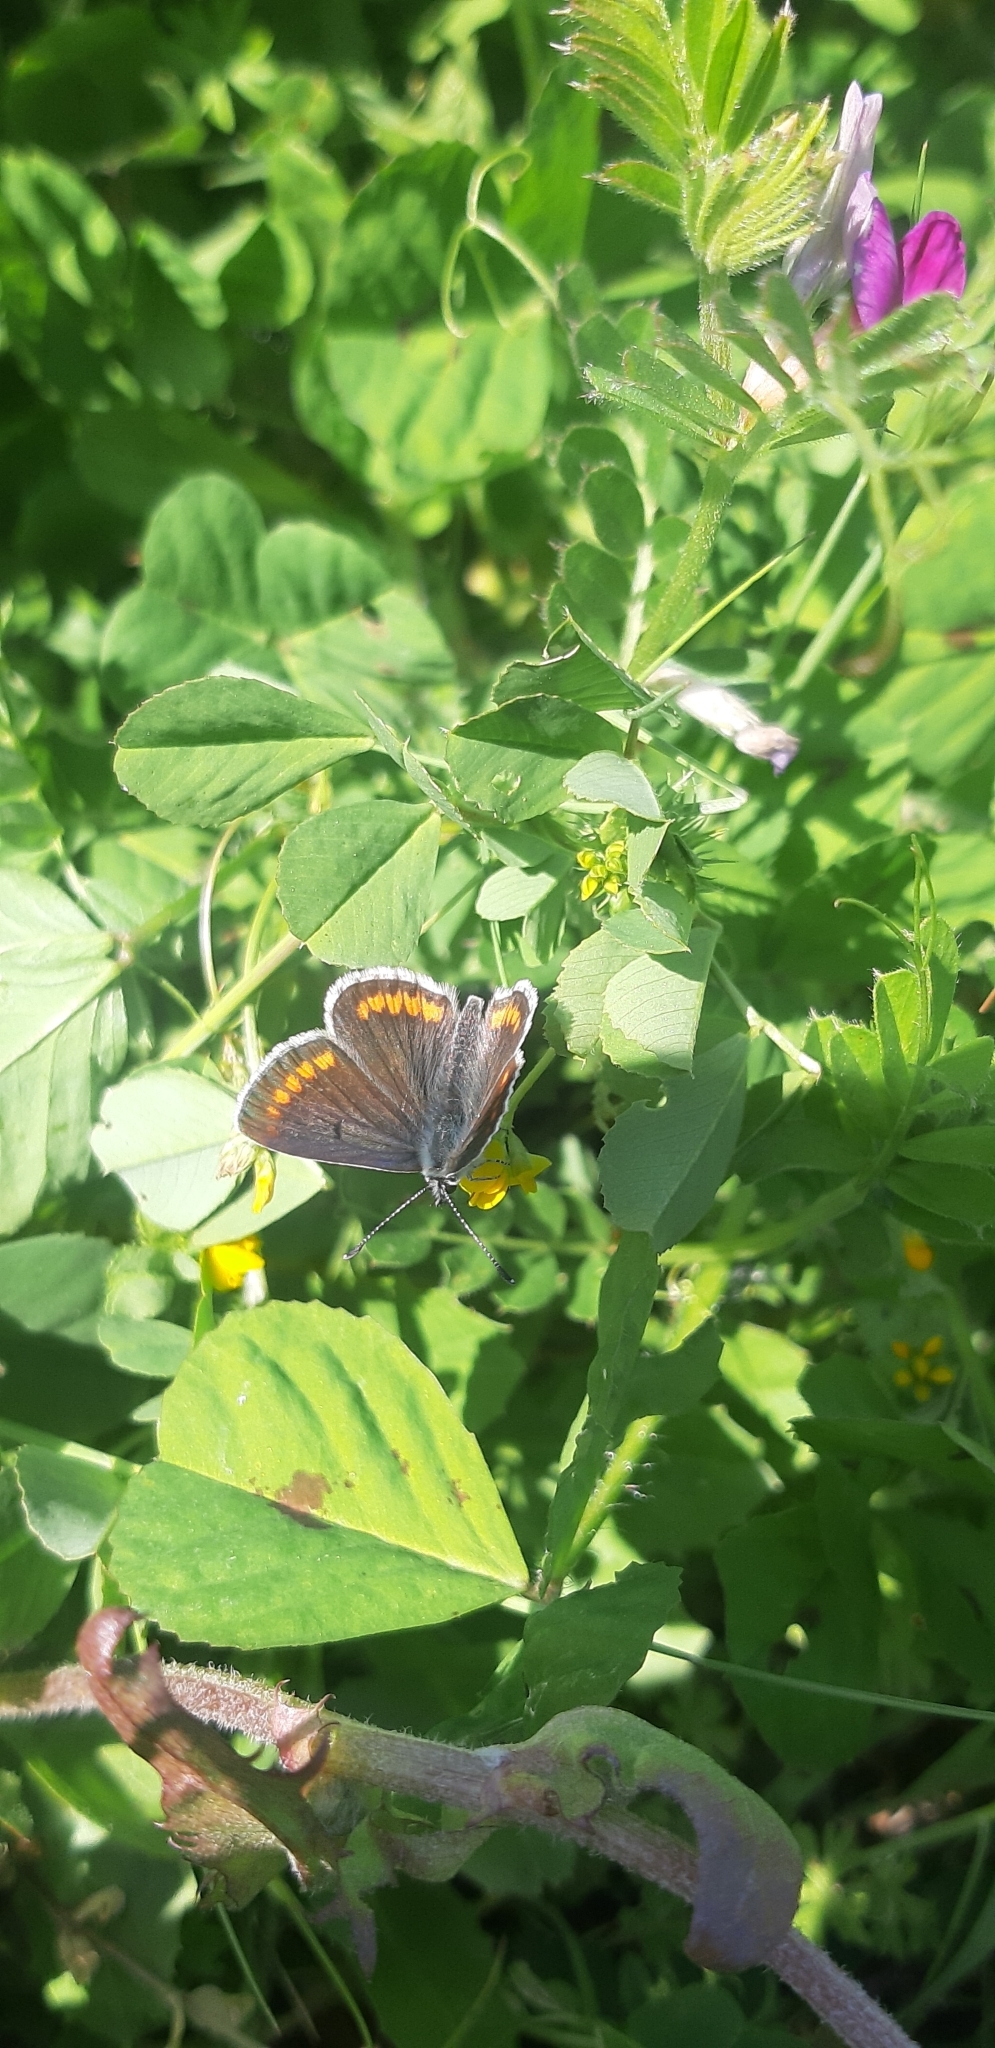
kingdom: Animalia
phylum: Arthropoda
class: Insecta
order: Lepidoptera
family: Lycaenidae
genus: Aricia
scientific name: Aricia agestis
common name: Brown argus
